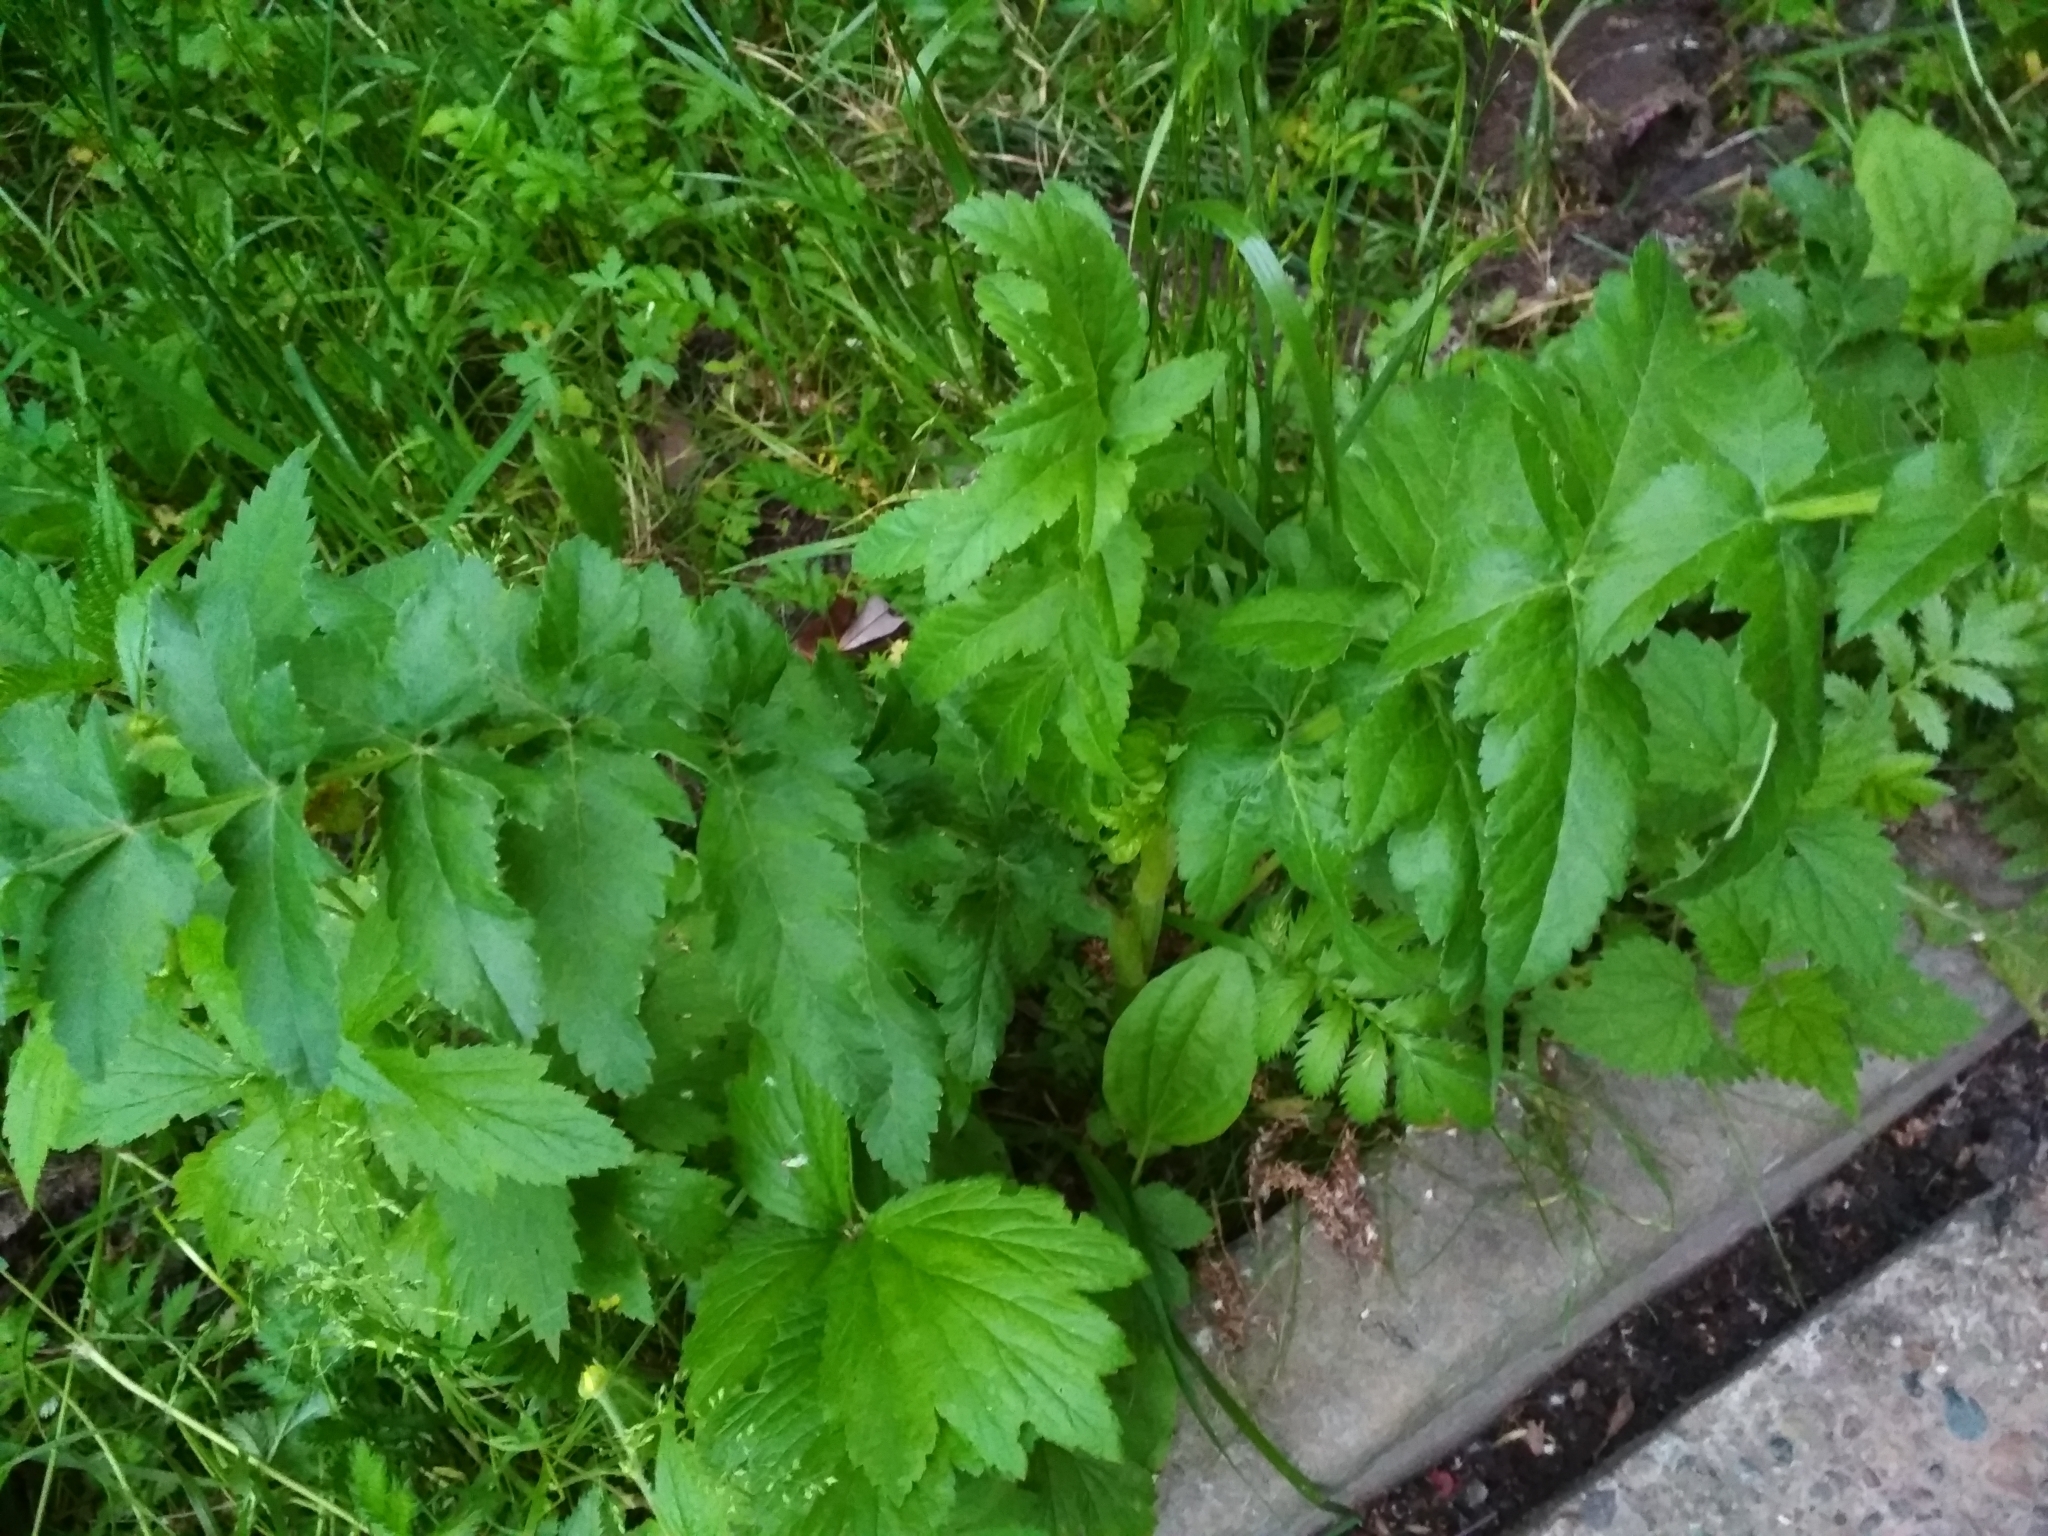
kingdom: Plantae
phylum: Tracheophyta
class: Magnoliopsida
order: Apiales
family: Apiaceae
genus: Pastinaca
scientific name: Pastinaca sativa
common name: Wild parsnip
